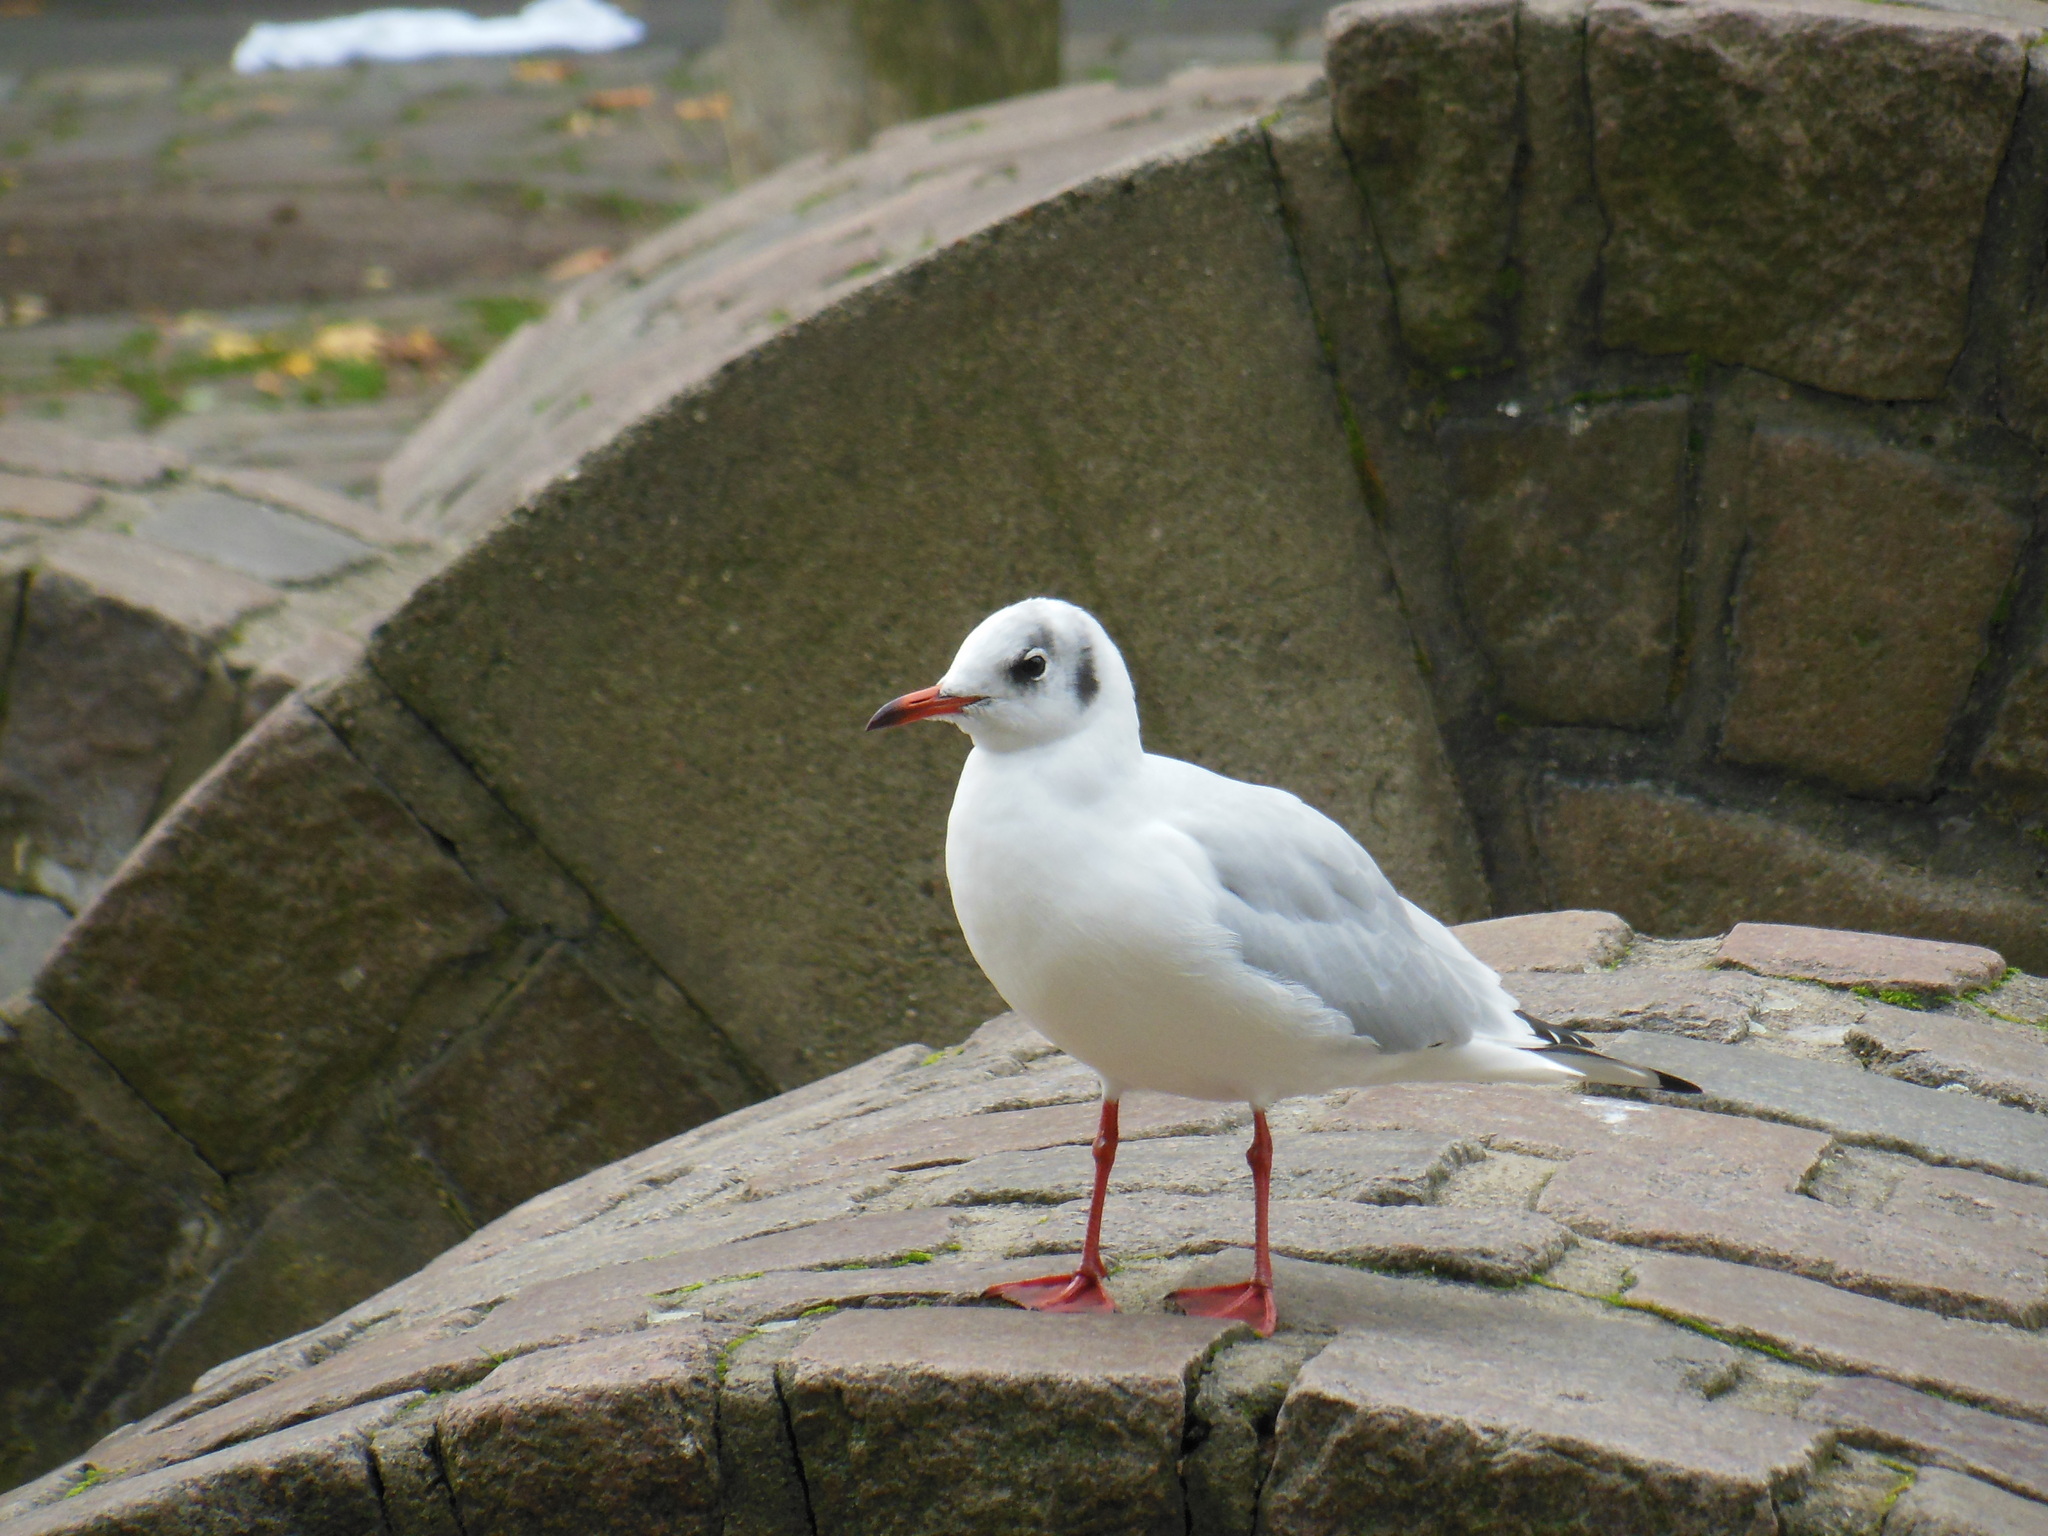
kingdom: Animalia
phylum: Chordata
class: Aves
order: Charadriiformes
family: Laridae
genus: Chroicocephalus
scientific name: Chroicocephalus ridibundus
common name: Black-headed gull
